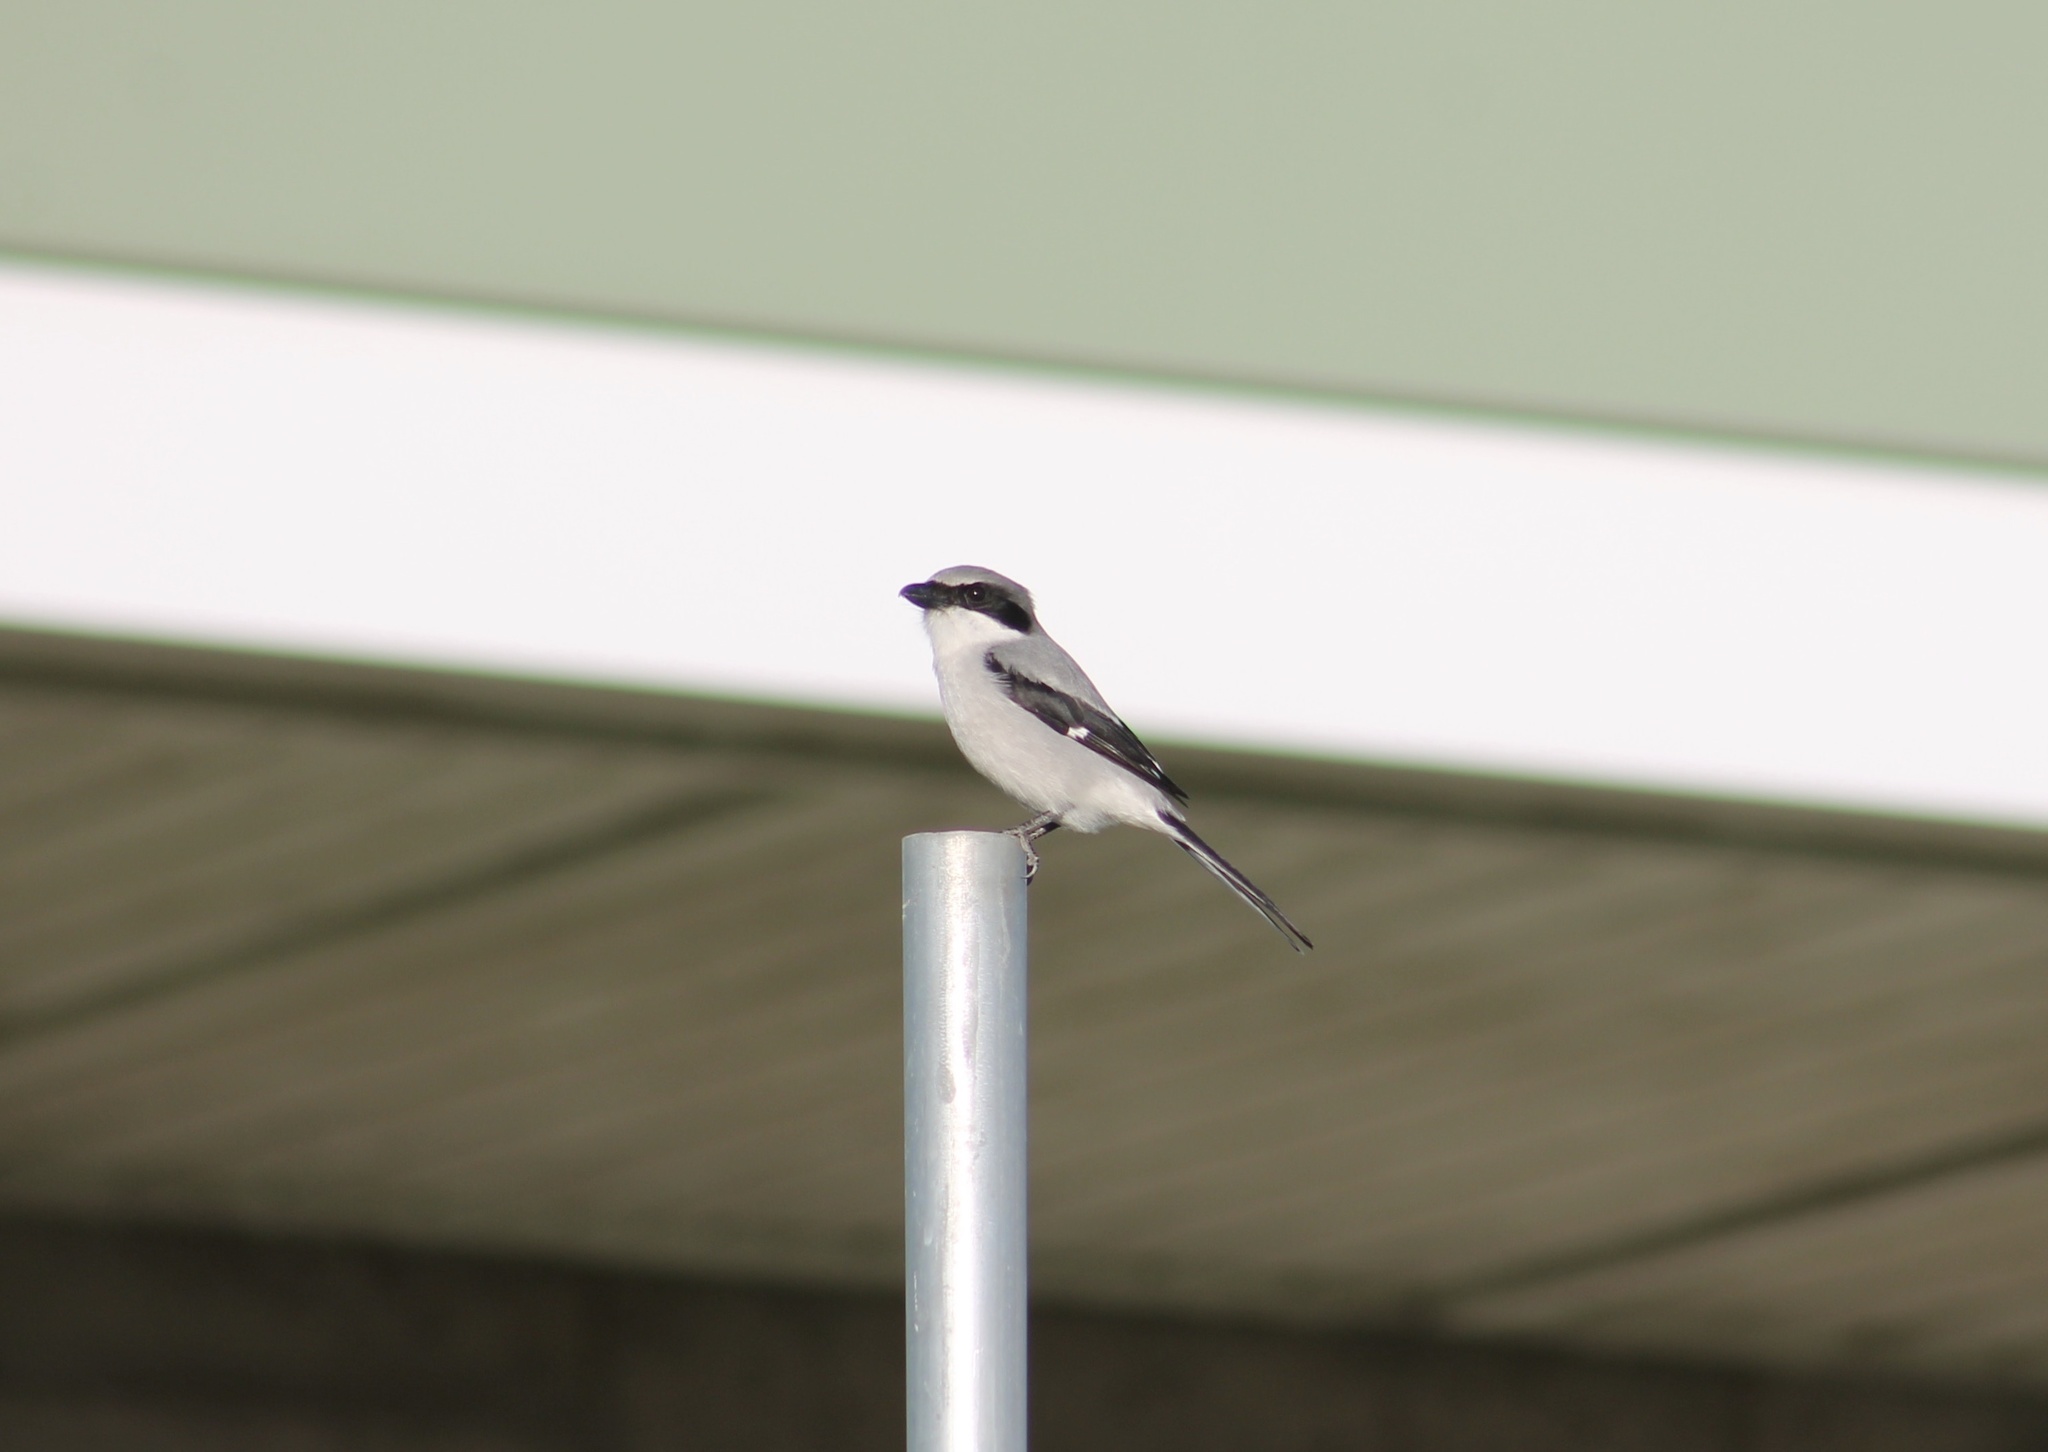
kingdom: Animalia
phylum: Chordata
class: Aves
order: Passeriformes
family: Laniidae
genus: Lanius
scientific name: Lanius ludovicianus
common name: Loggerhead shrike
